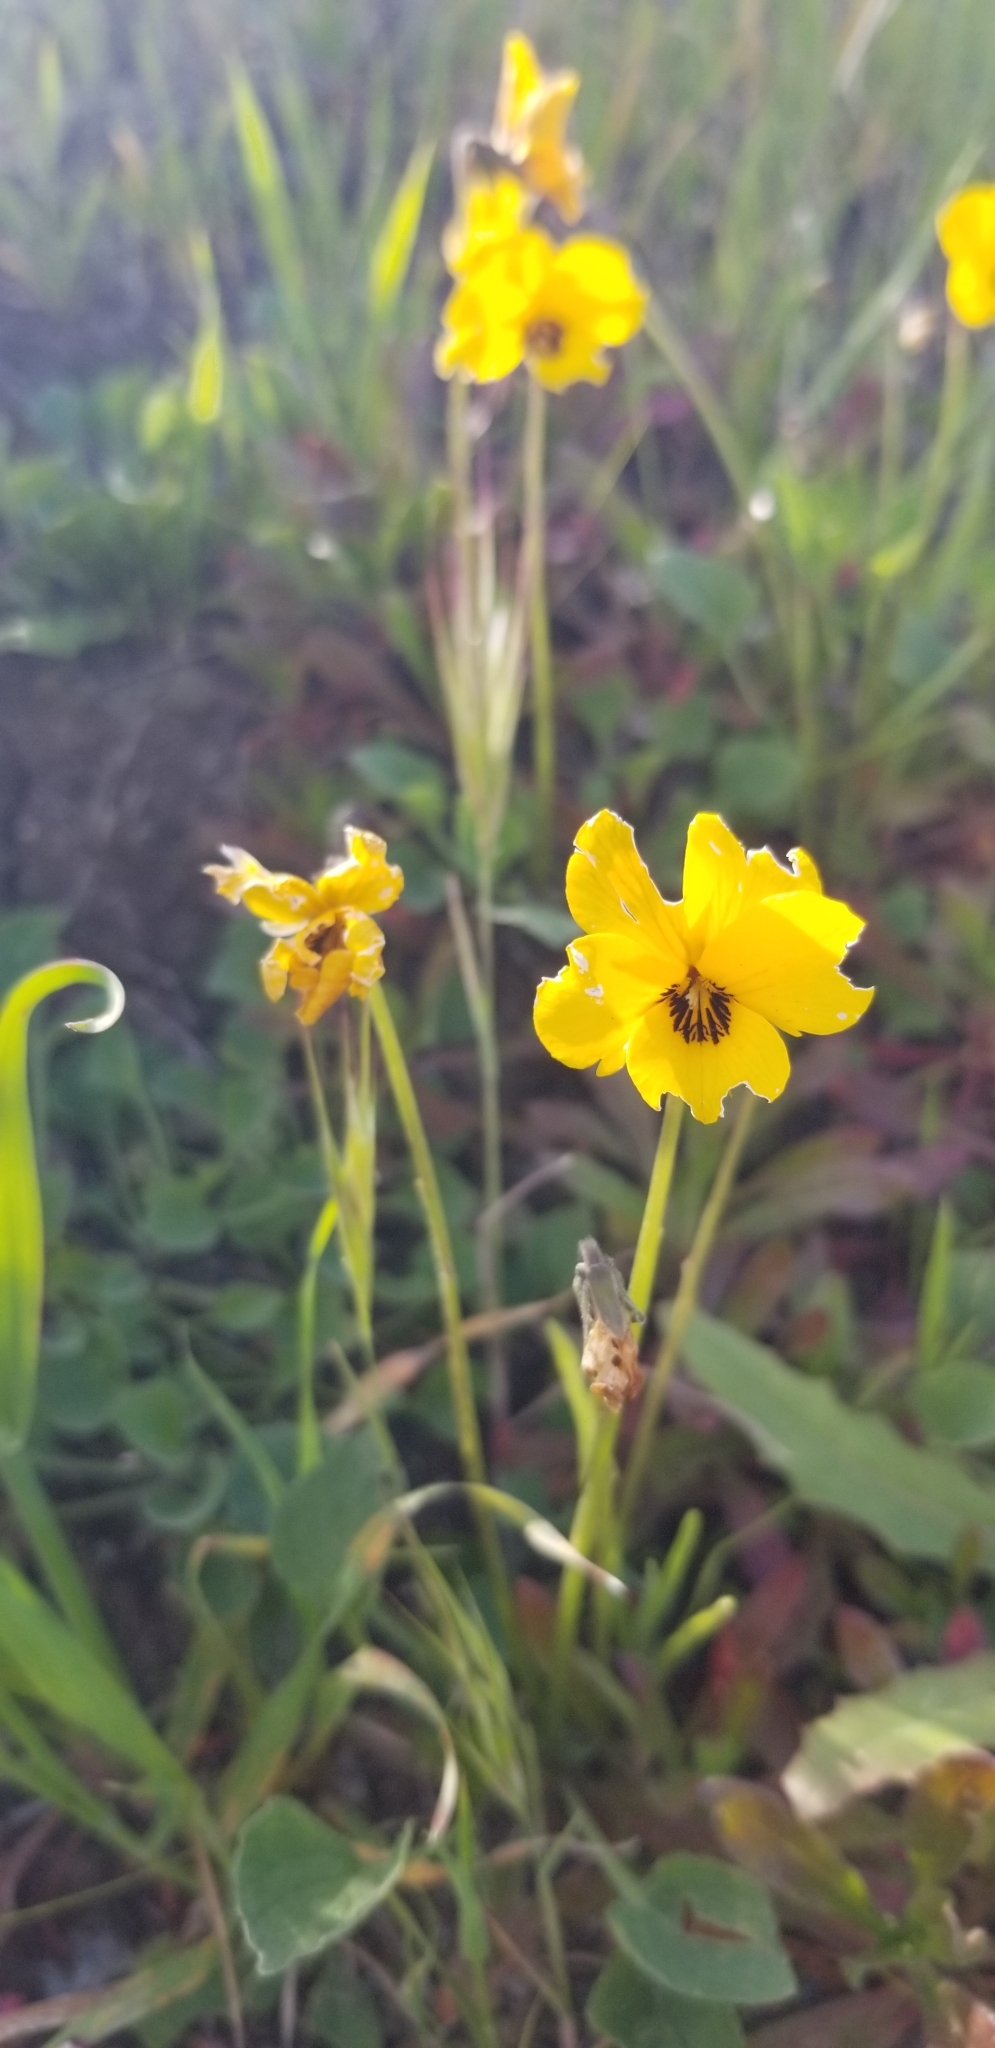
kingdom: Plantae
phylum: Tracheophyta
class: Magnoliopsida
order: Malpighiales
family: Violaceae
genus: Viola
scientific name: Viola pedunculata
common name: California golden violet
